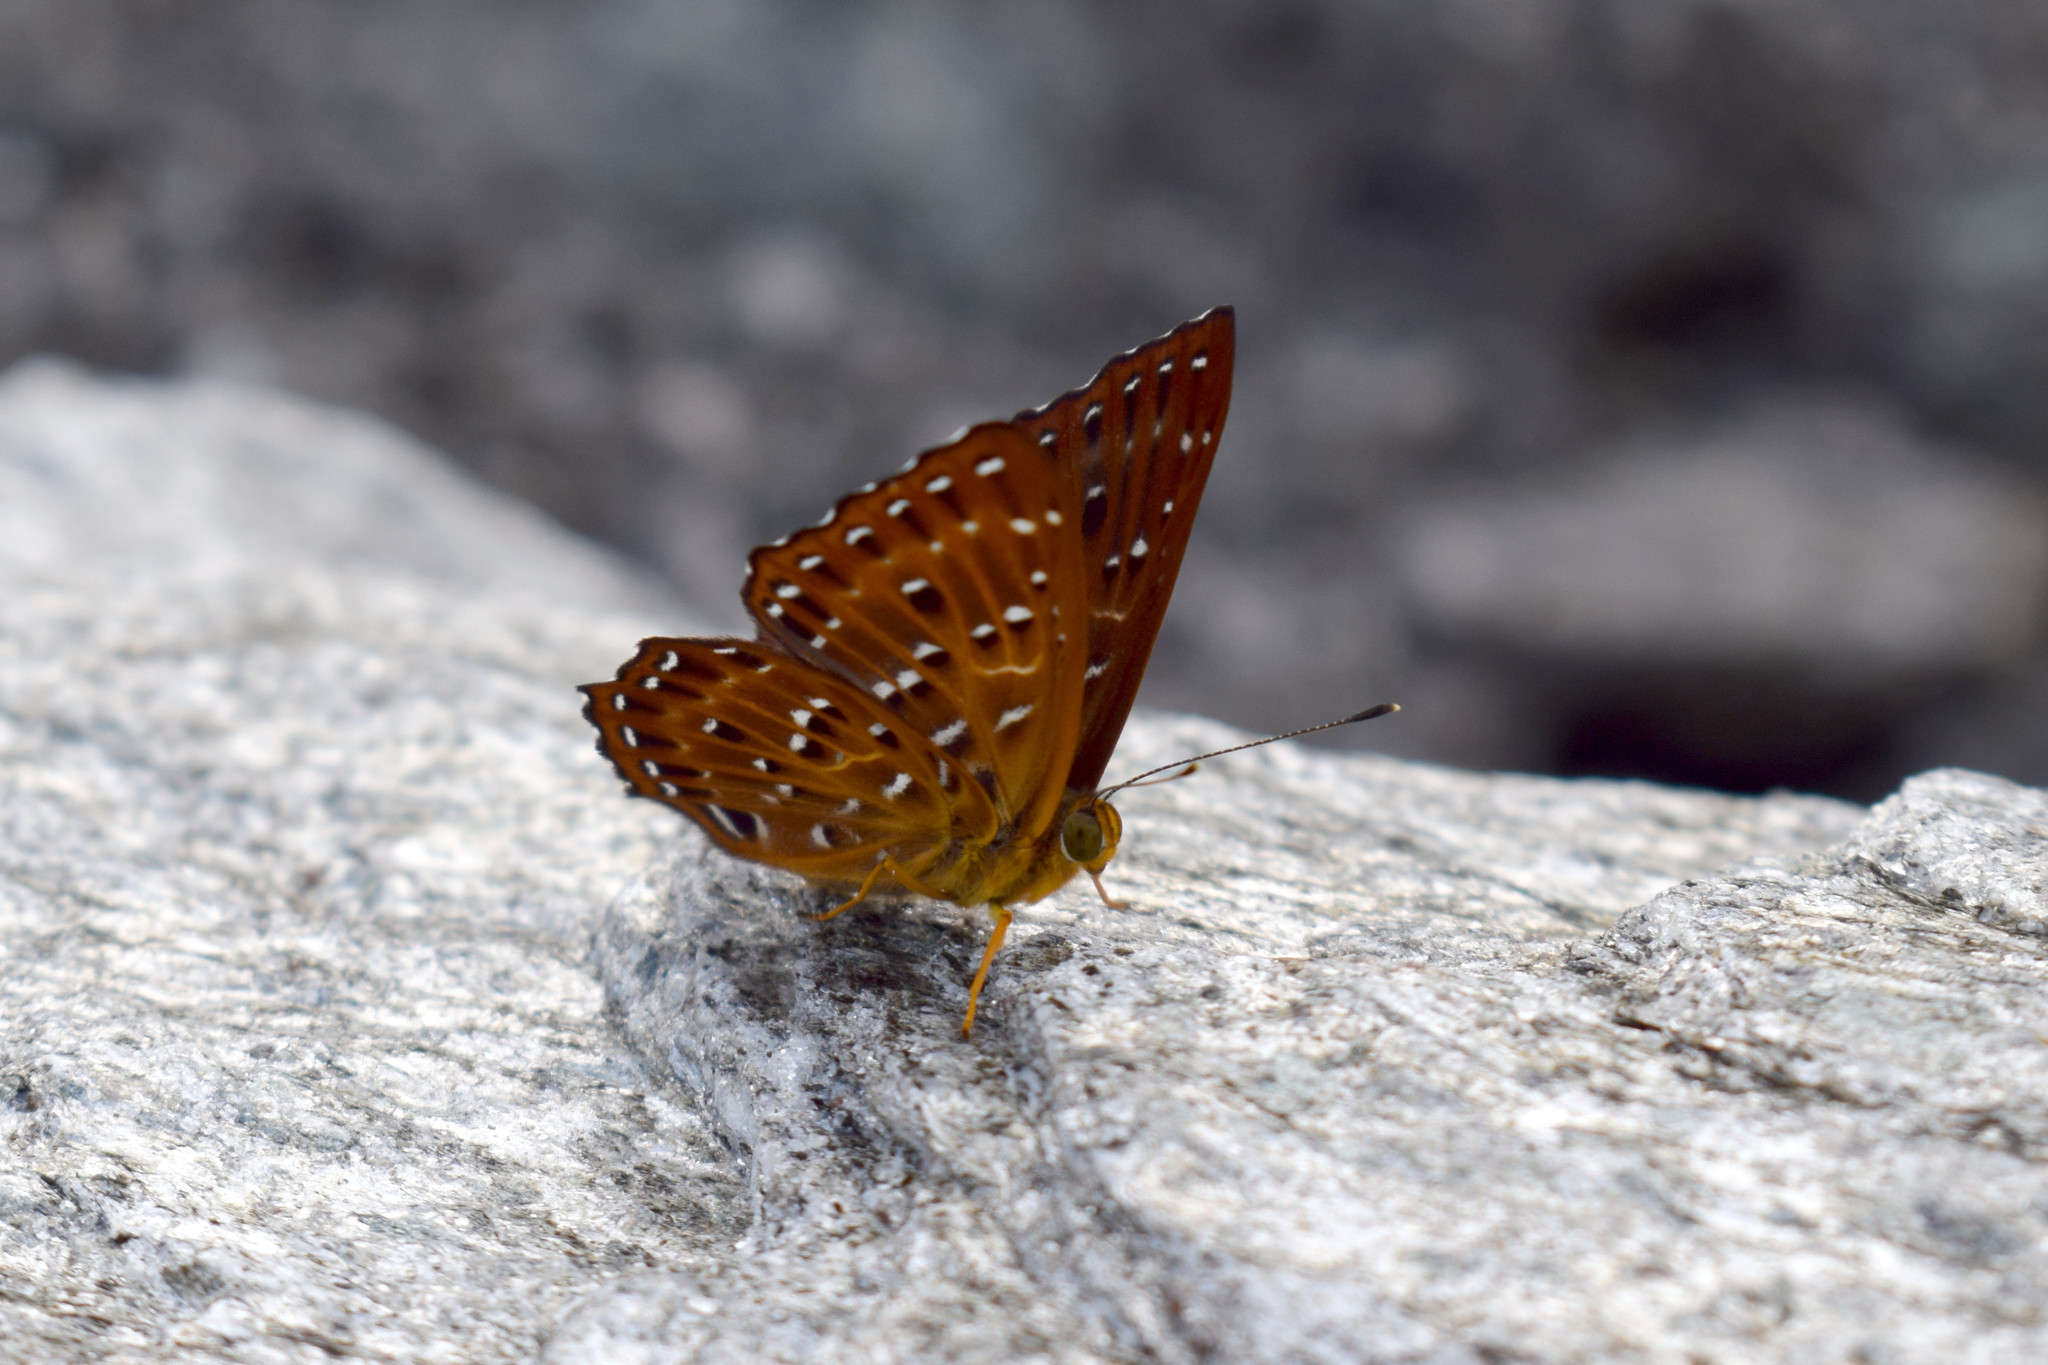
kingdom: Animalia
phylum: Arthropoda
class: Insecta
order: Lepidoptera
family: Riodinidae
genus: Zemeros
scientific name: Zemeros flegyas
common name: Punchinello
